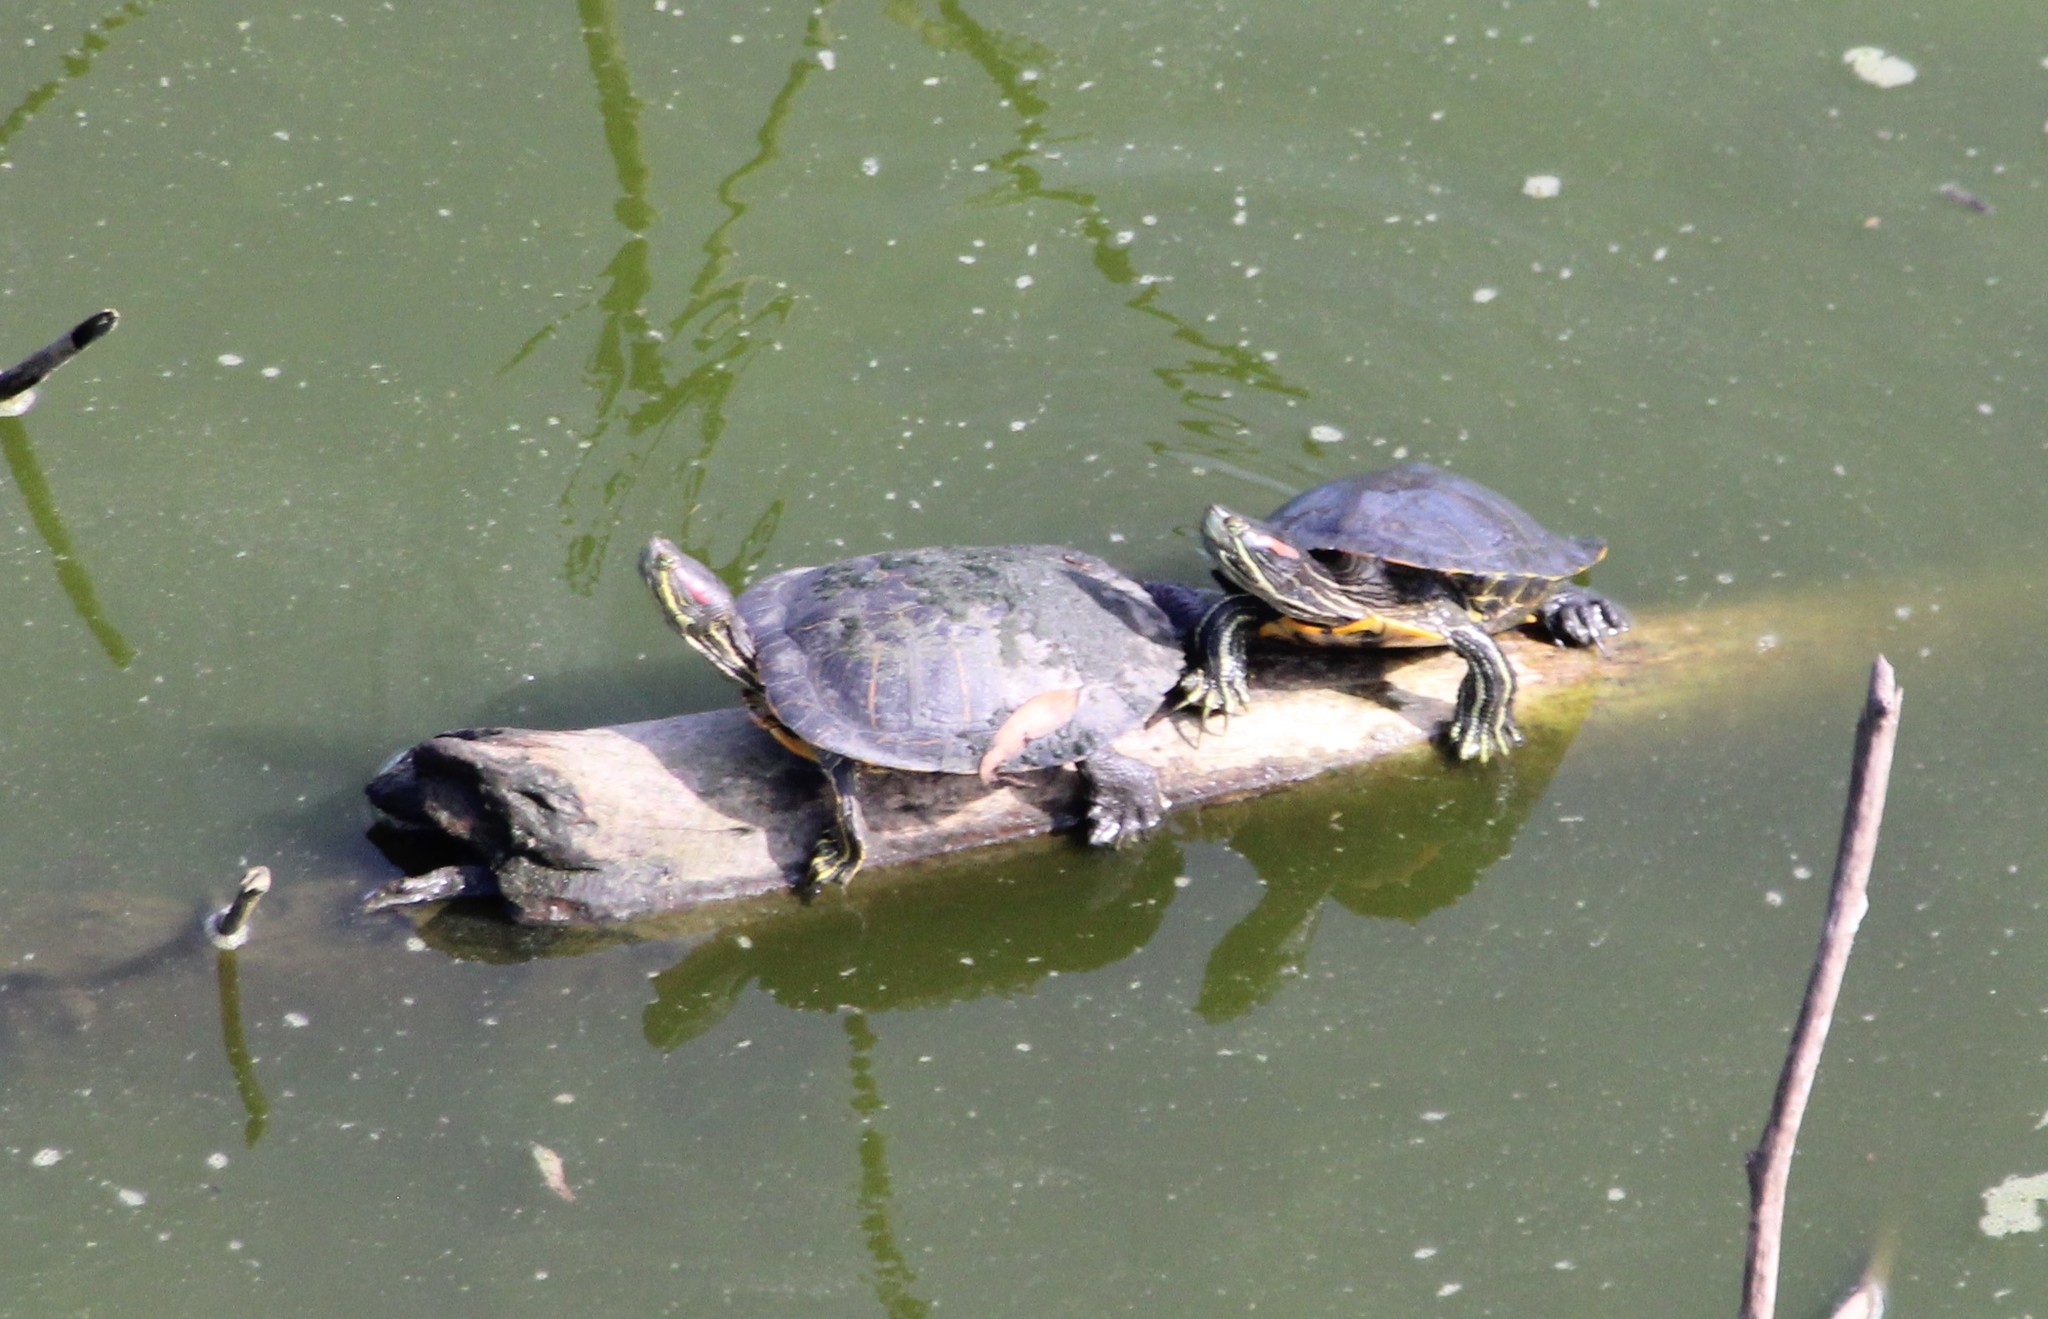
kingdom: Animalia
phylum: Chordata
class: Testudines
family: Emydidae
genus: Trachemys
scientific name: Trachemys scripta
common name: Slider
